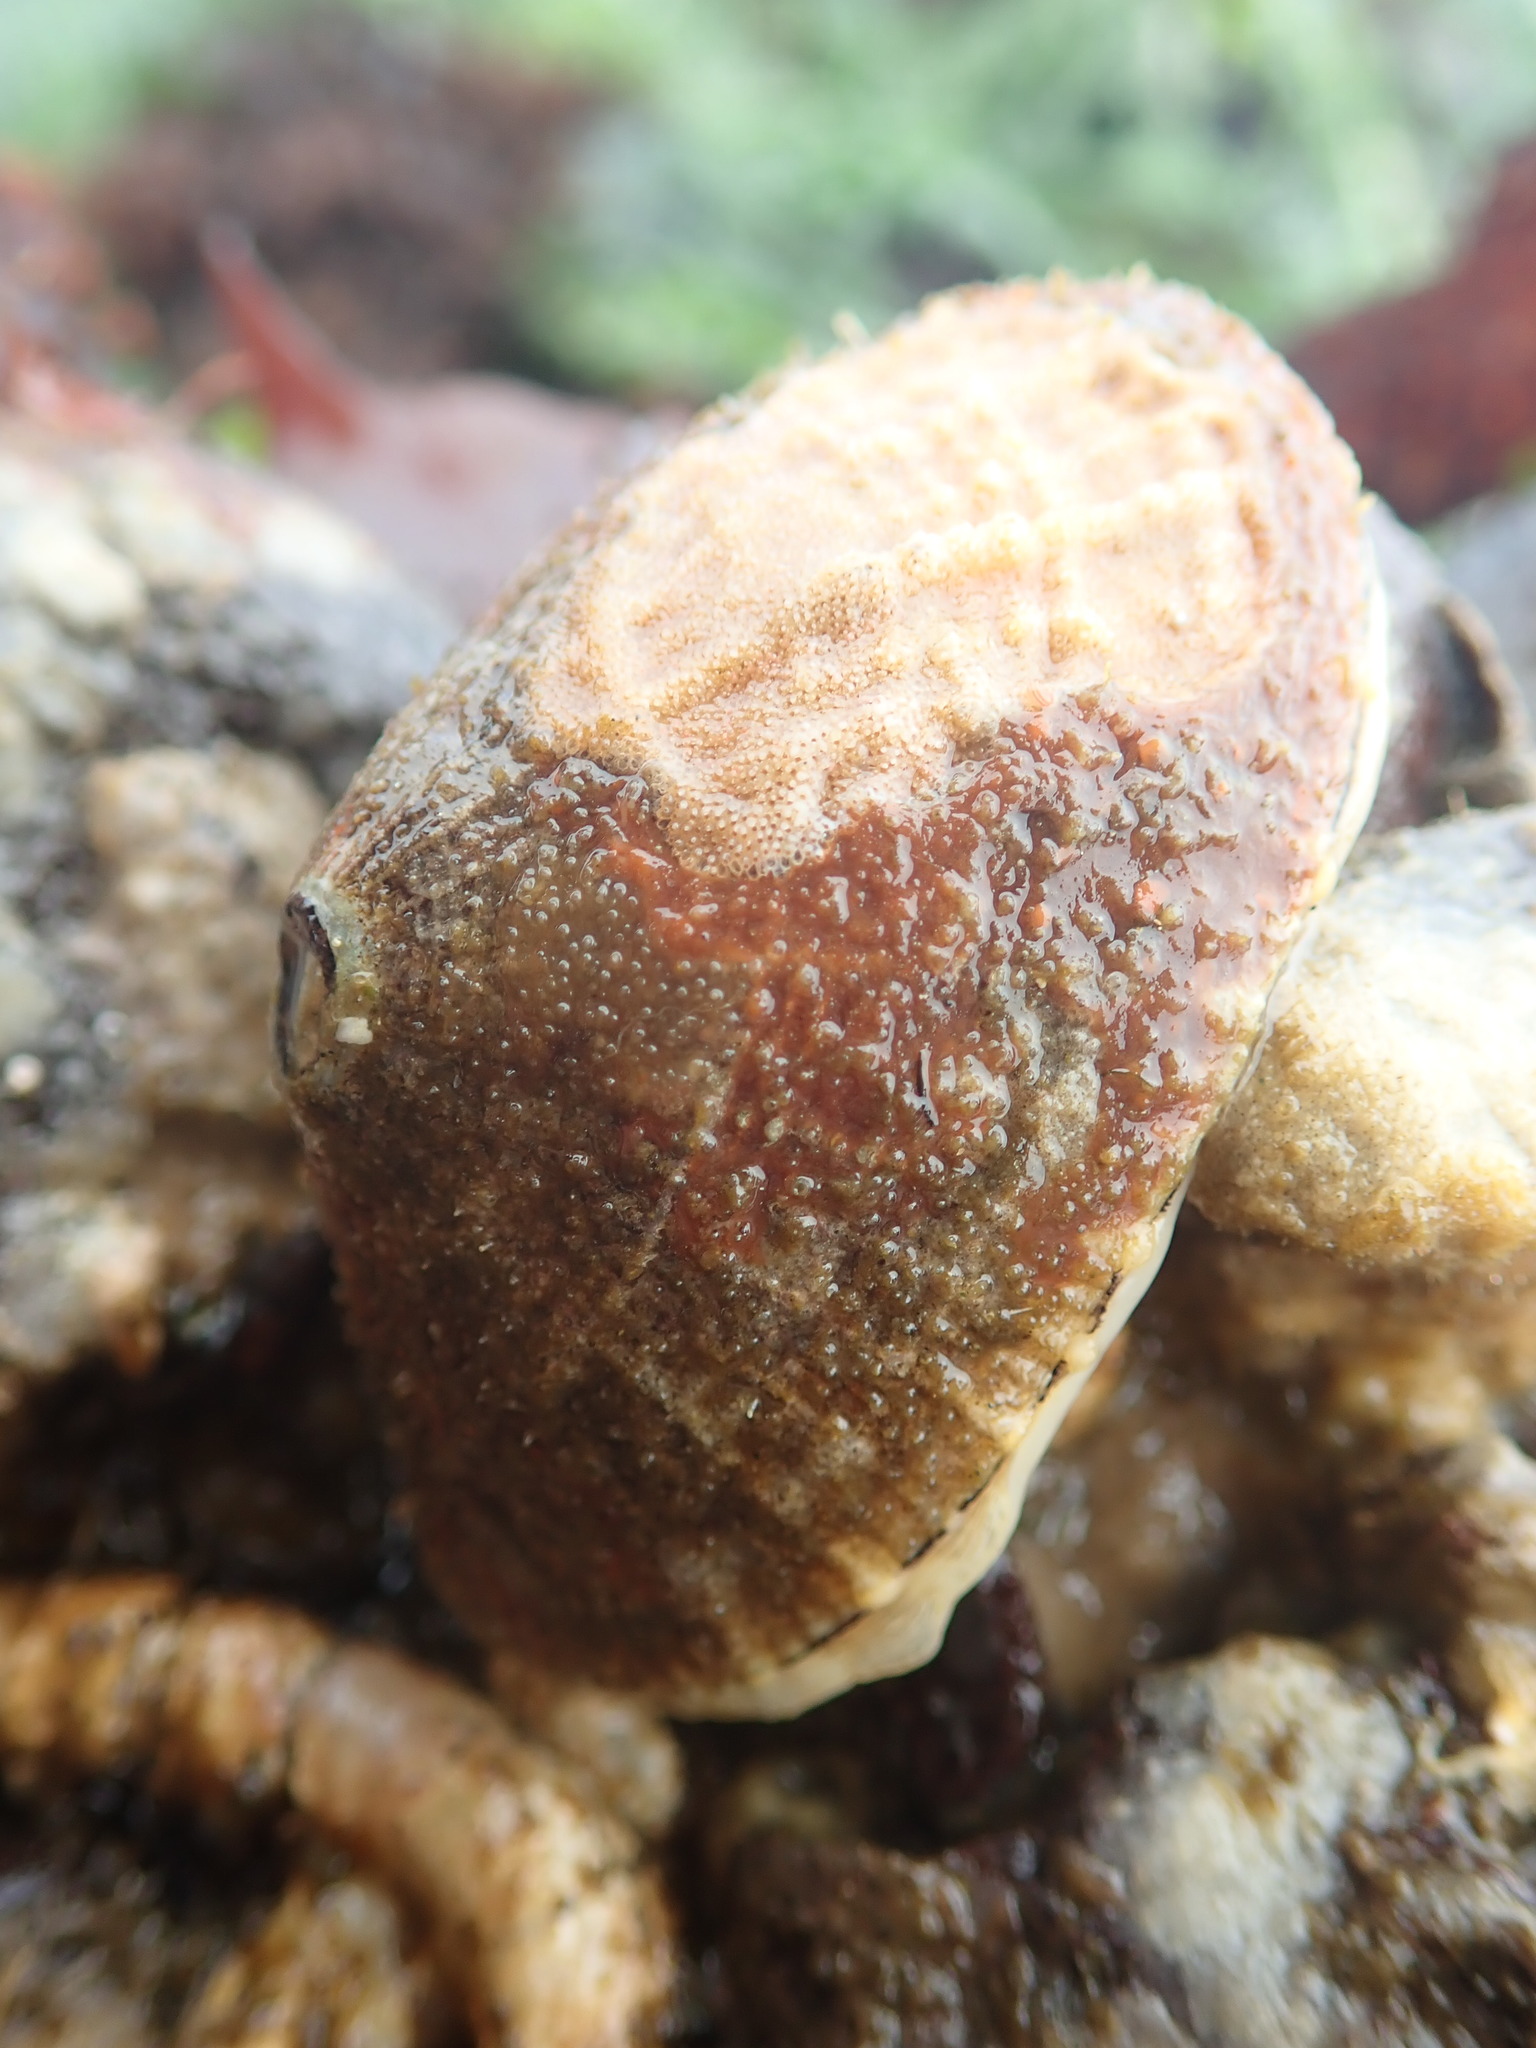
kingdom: Animalia
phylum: Mollusca
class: Gastropoda
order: Lepetellida
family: Fissurellidae
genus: Diodora
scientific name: Diodora aspera
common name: Rough keyhole limpet
